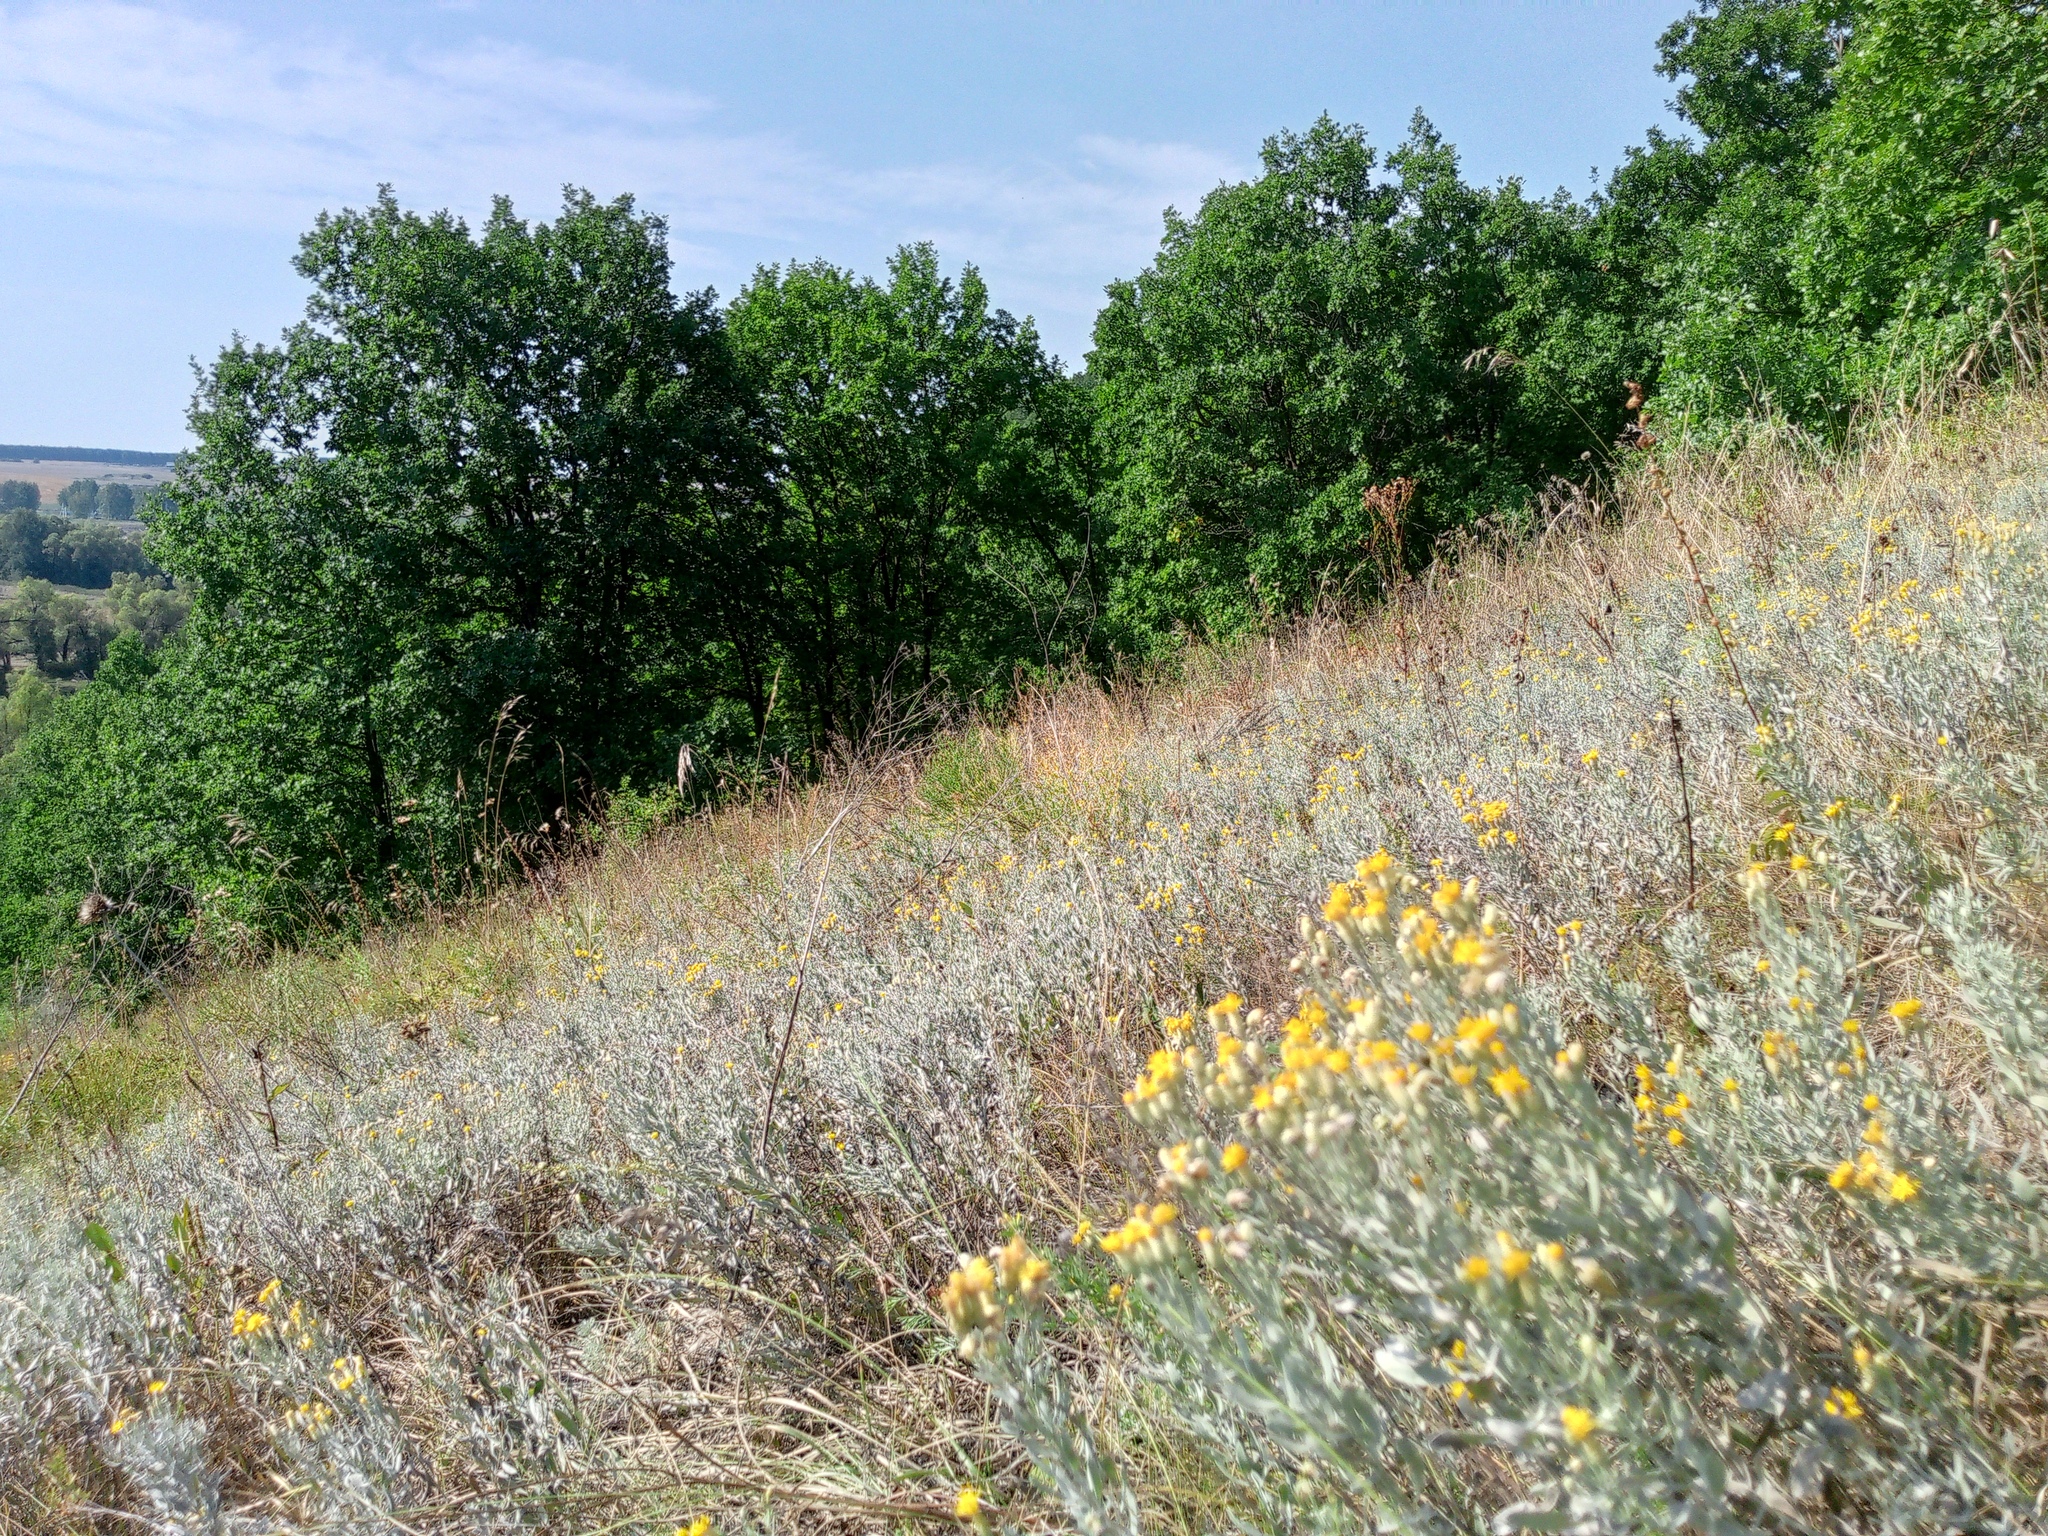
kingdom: Plantae
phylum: Tracheophyta
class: Magnoliopsida
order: Asterales
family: Asteraceae
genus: Galatella
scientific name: Galatella villosa
